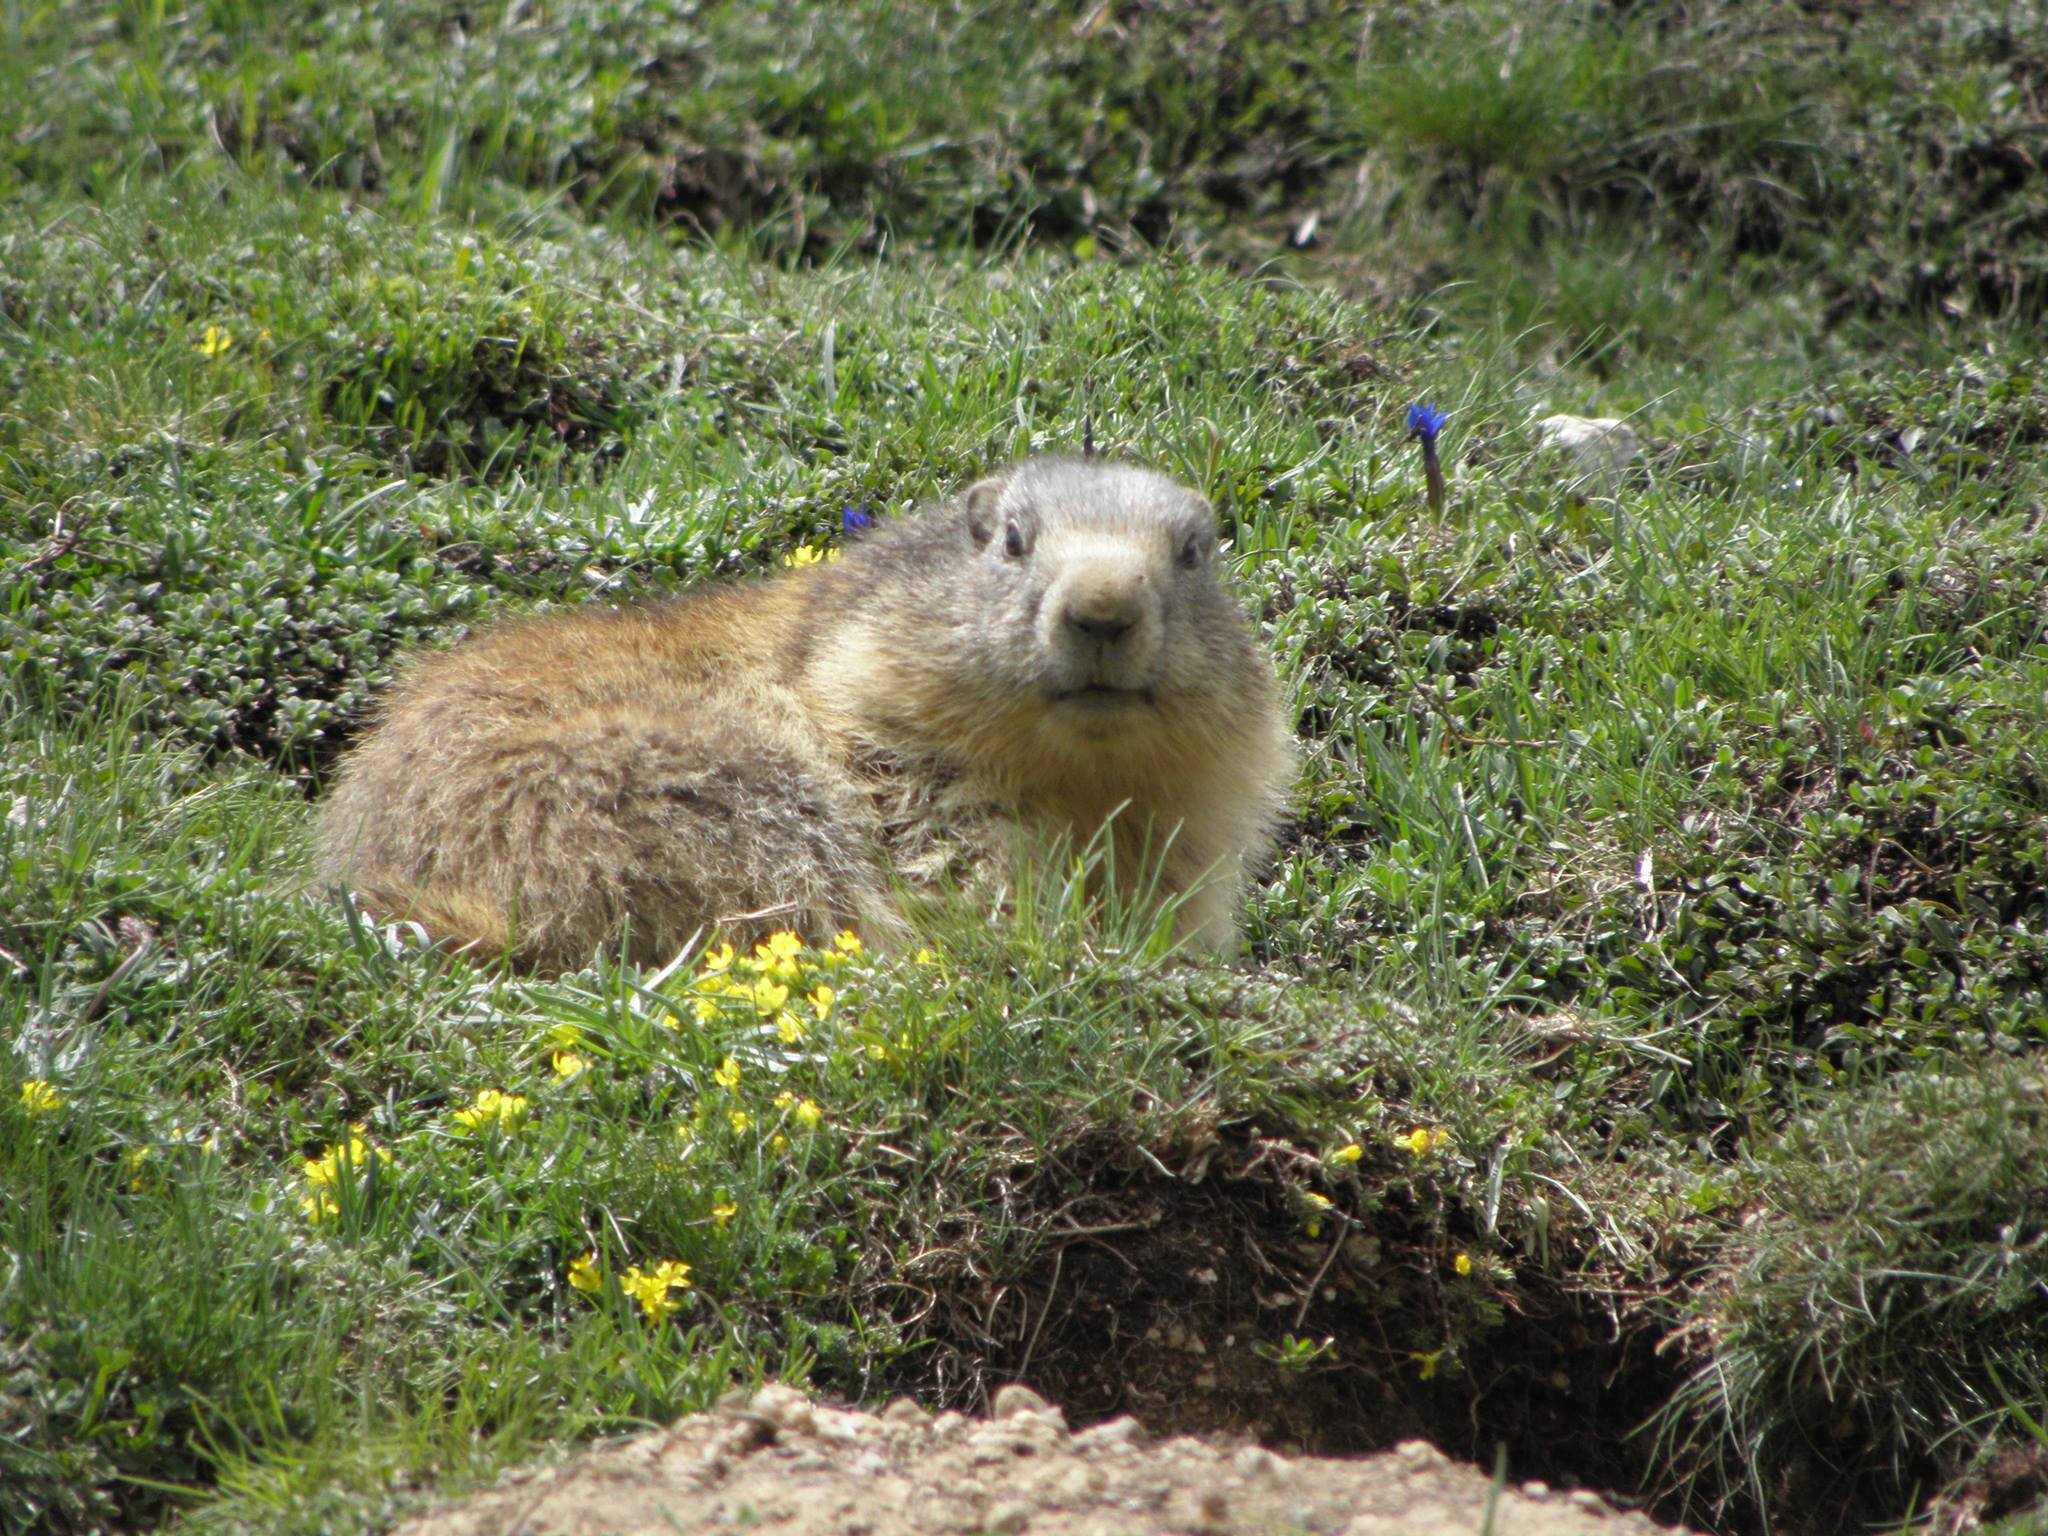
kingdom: Animalia
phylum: Chordata
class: Mammalia
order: Rodentia
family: Sciuridae
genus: Marmota
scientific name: Marmota marmota
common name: Alpine marmot
